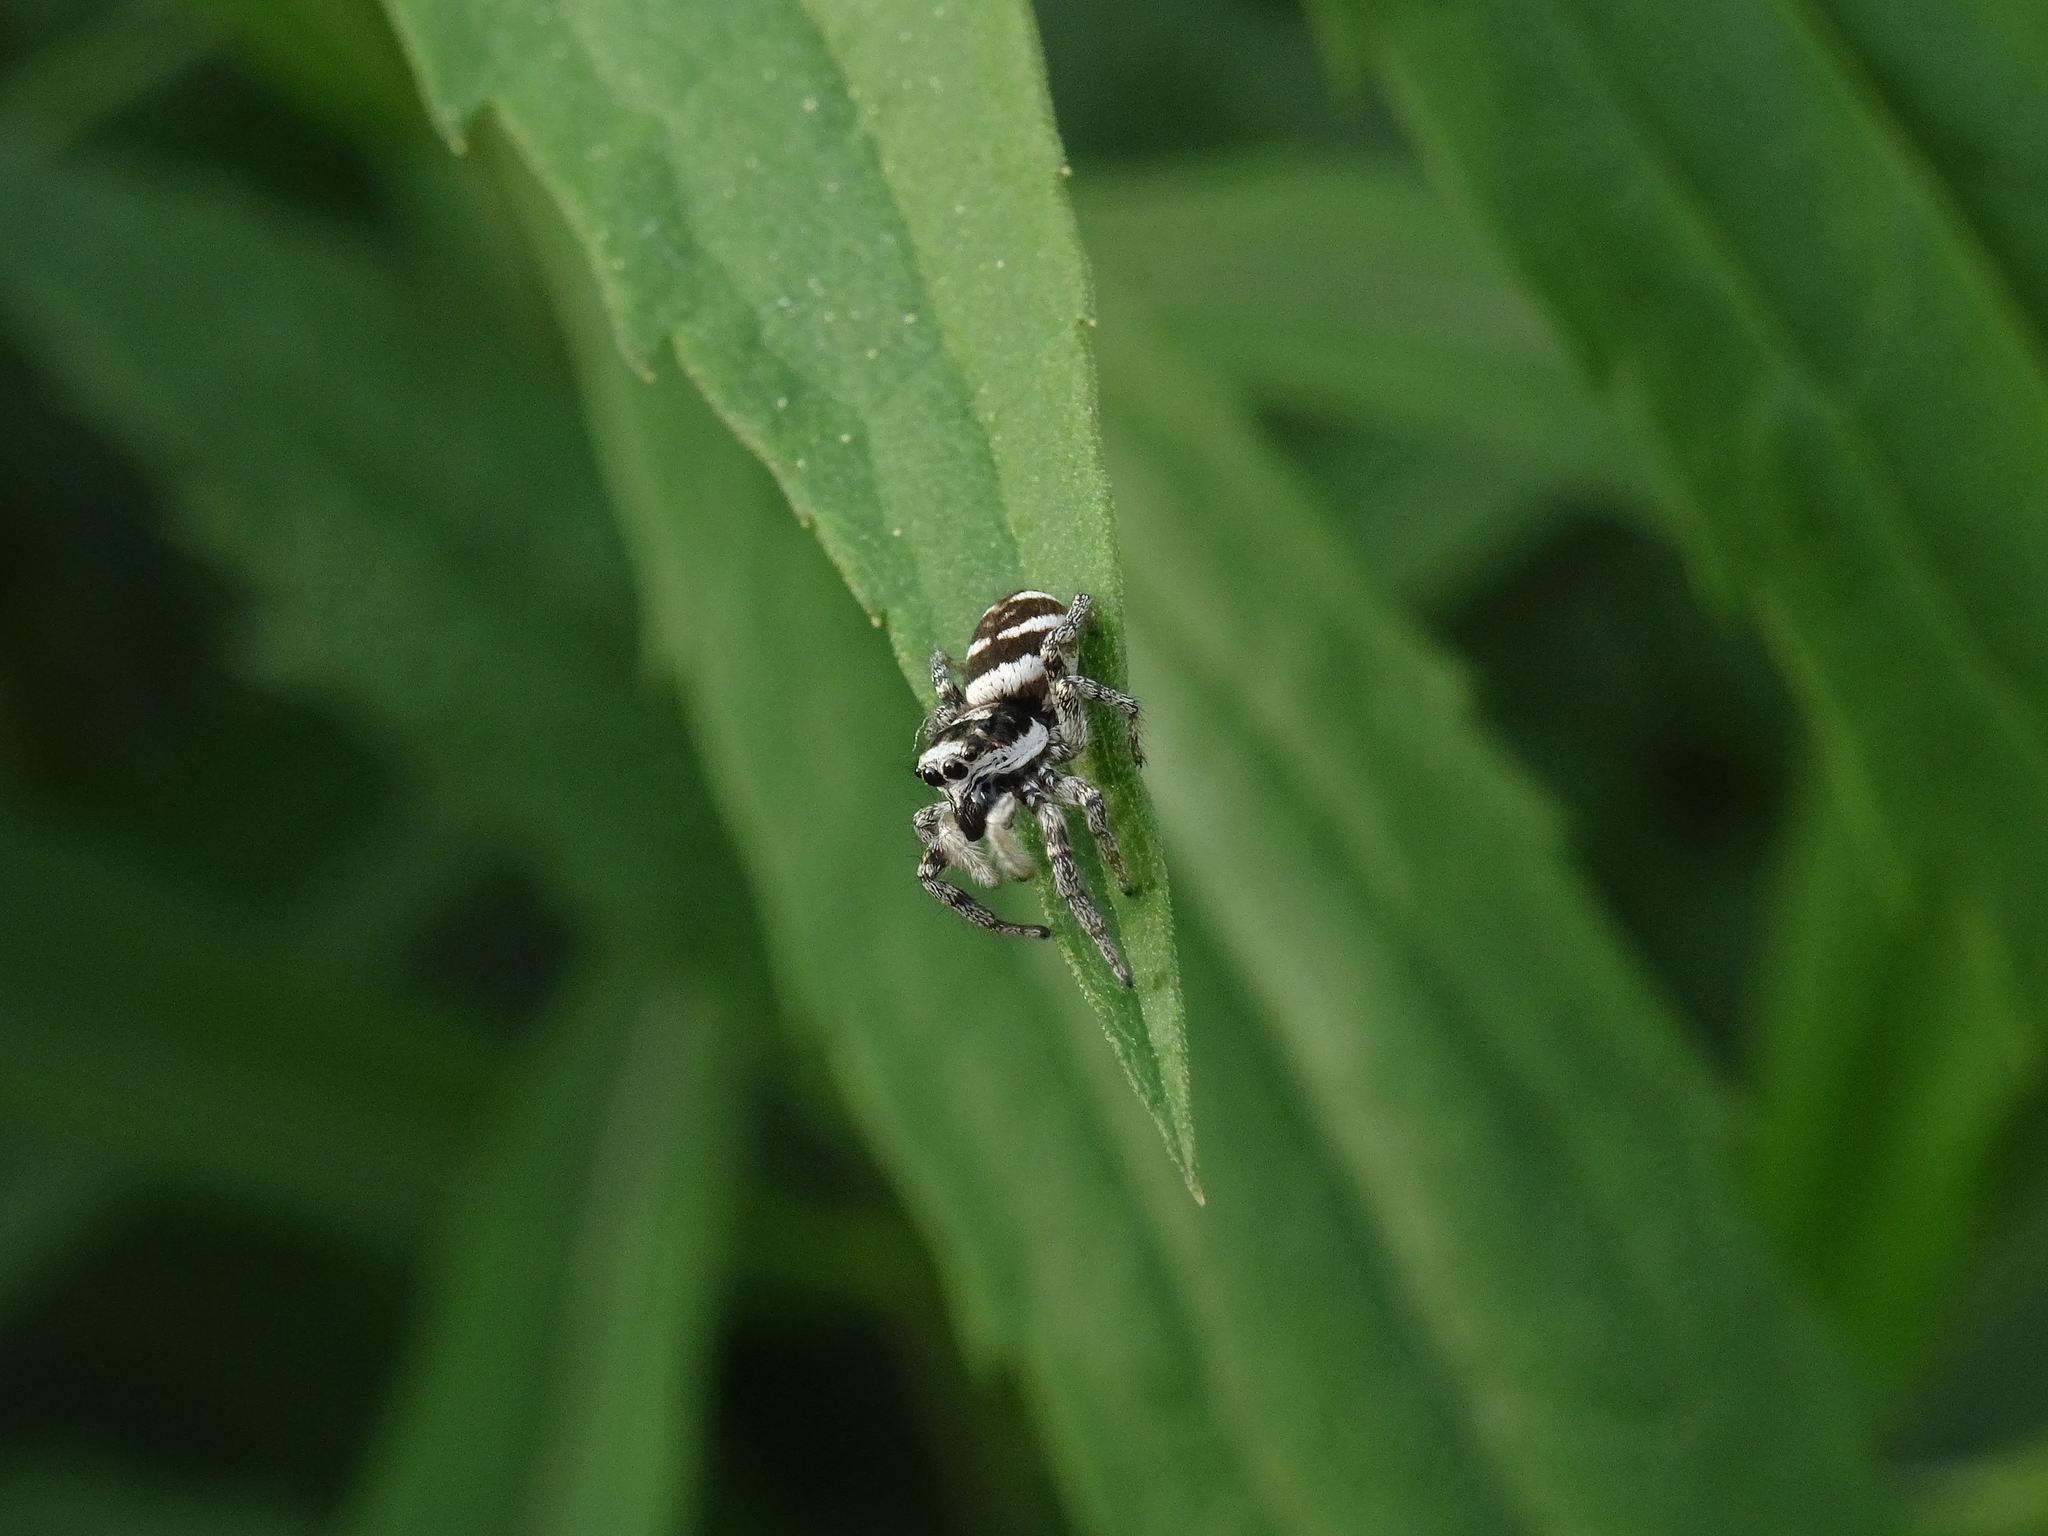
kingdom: Animalia
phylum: Arthropoda
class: Arachnida
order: Araneae
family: Salticidae
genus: Salticus
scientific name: Salticus scenicus
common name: Zebra jumper
